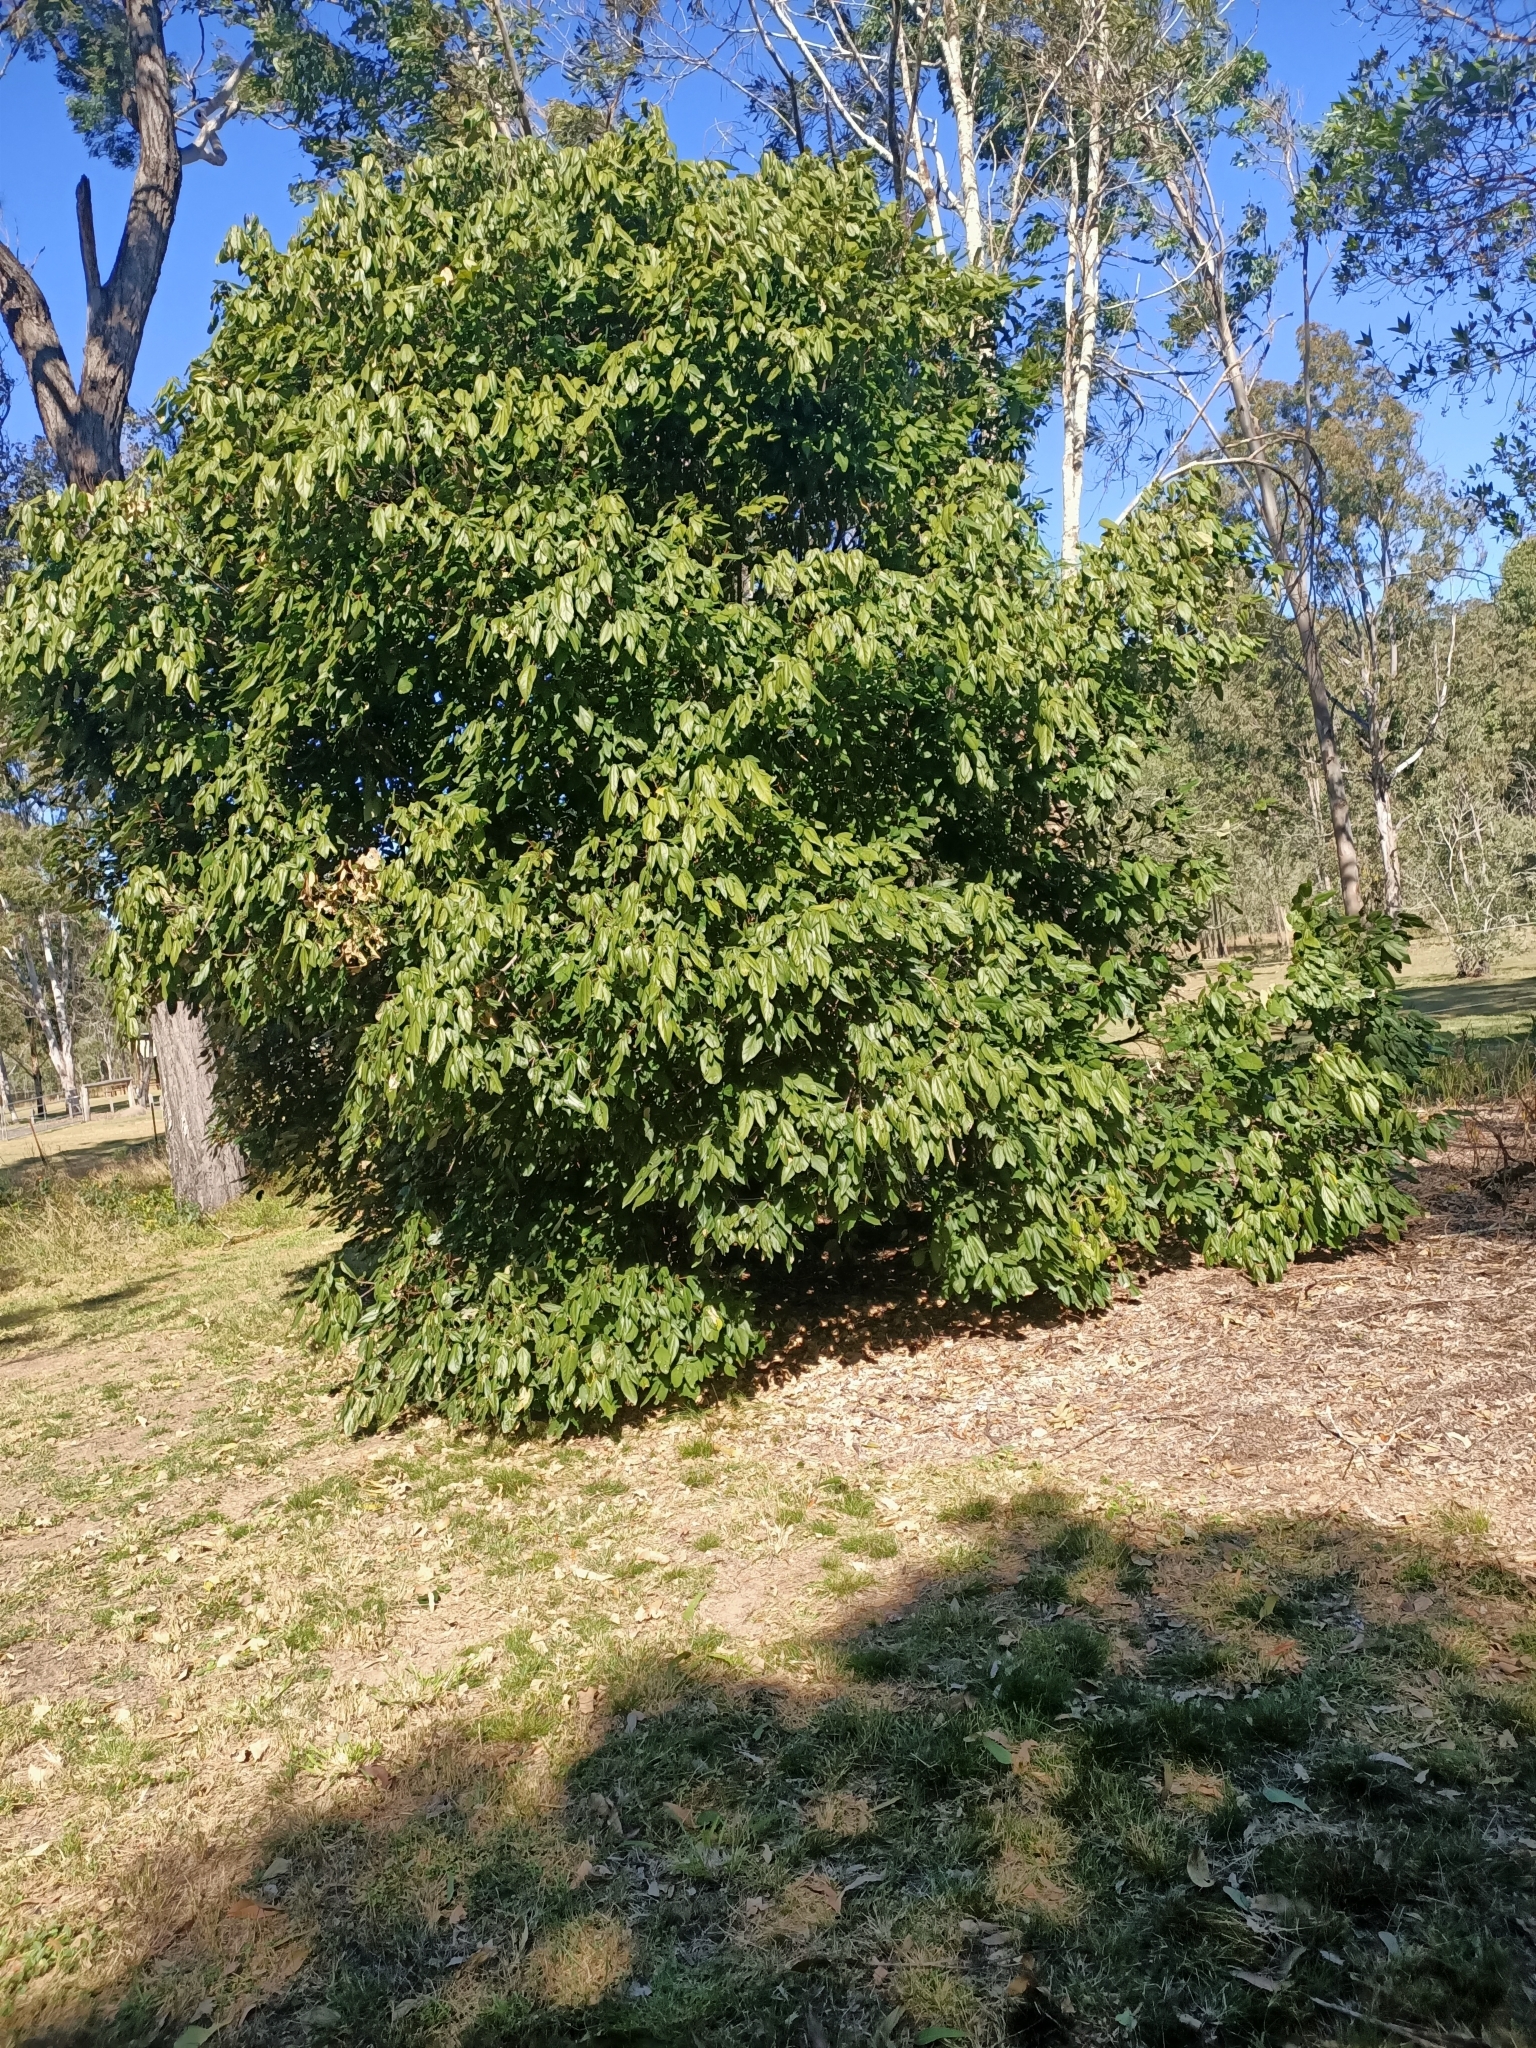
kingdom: Plantae
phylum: Tracheophyta
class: Magnoliopsida
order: Malpighiales
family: Euphorbiaceae
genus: Mallotus
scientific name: Mallotus philippensis
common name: Kamala tree
